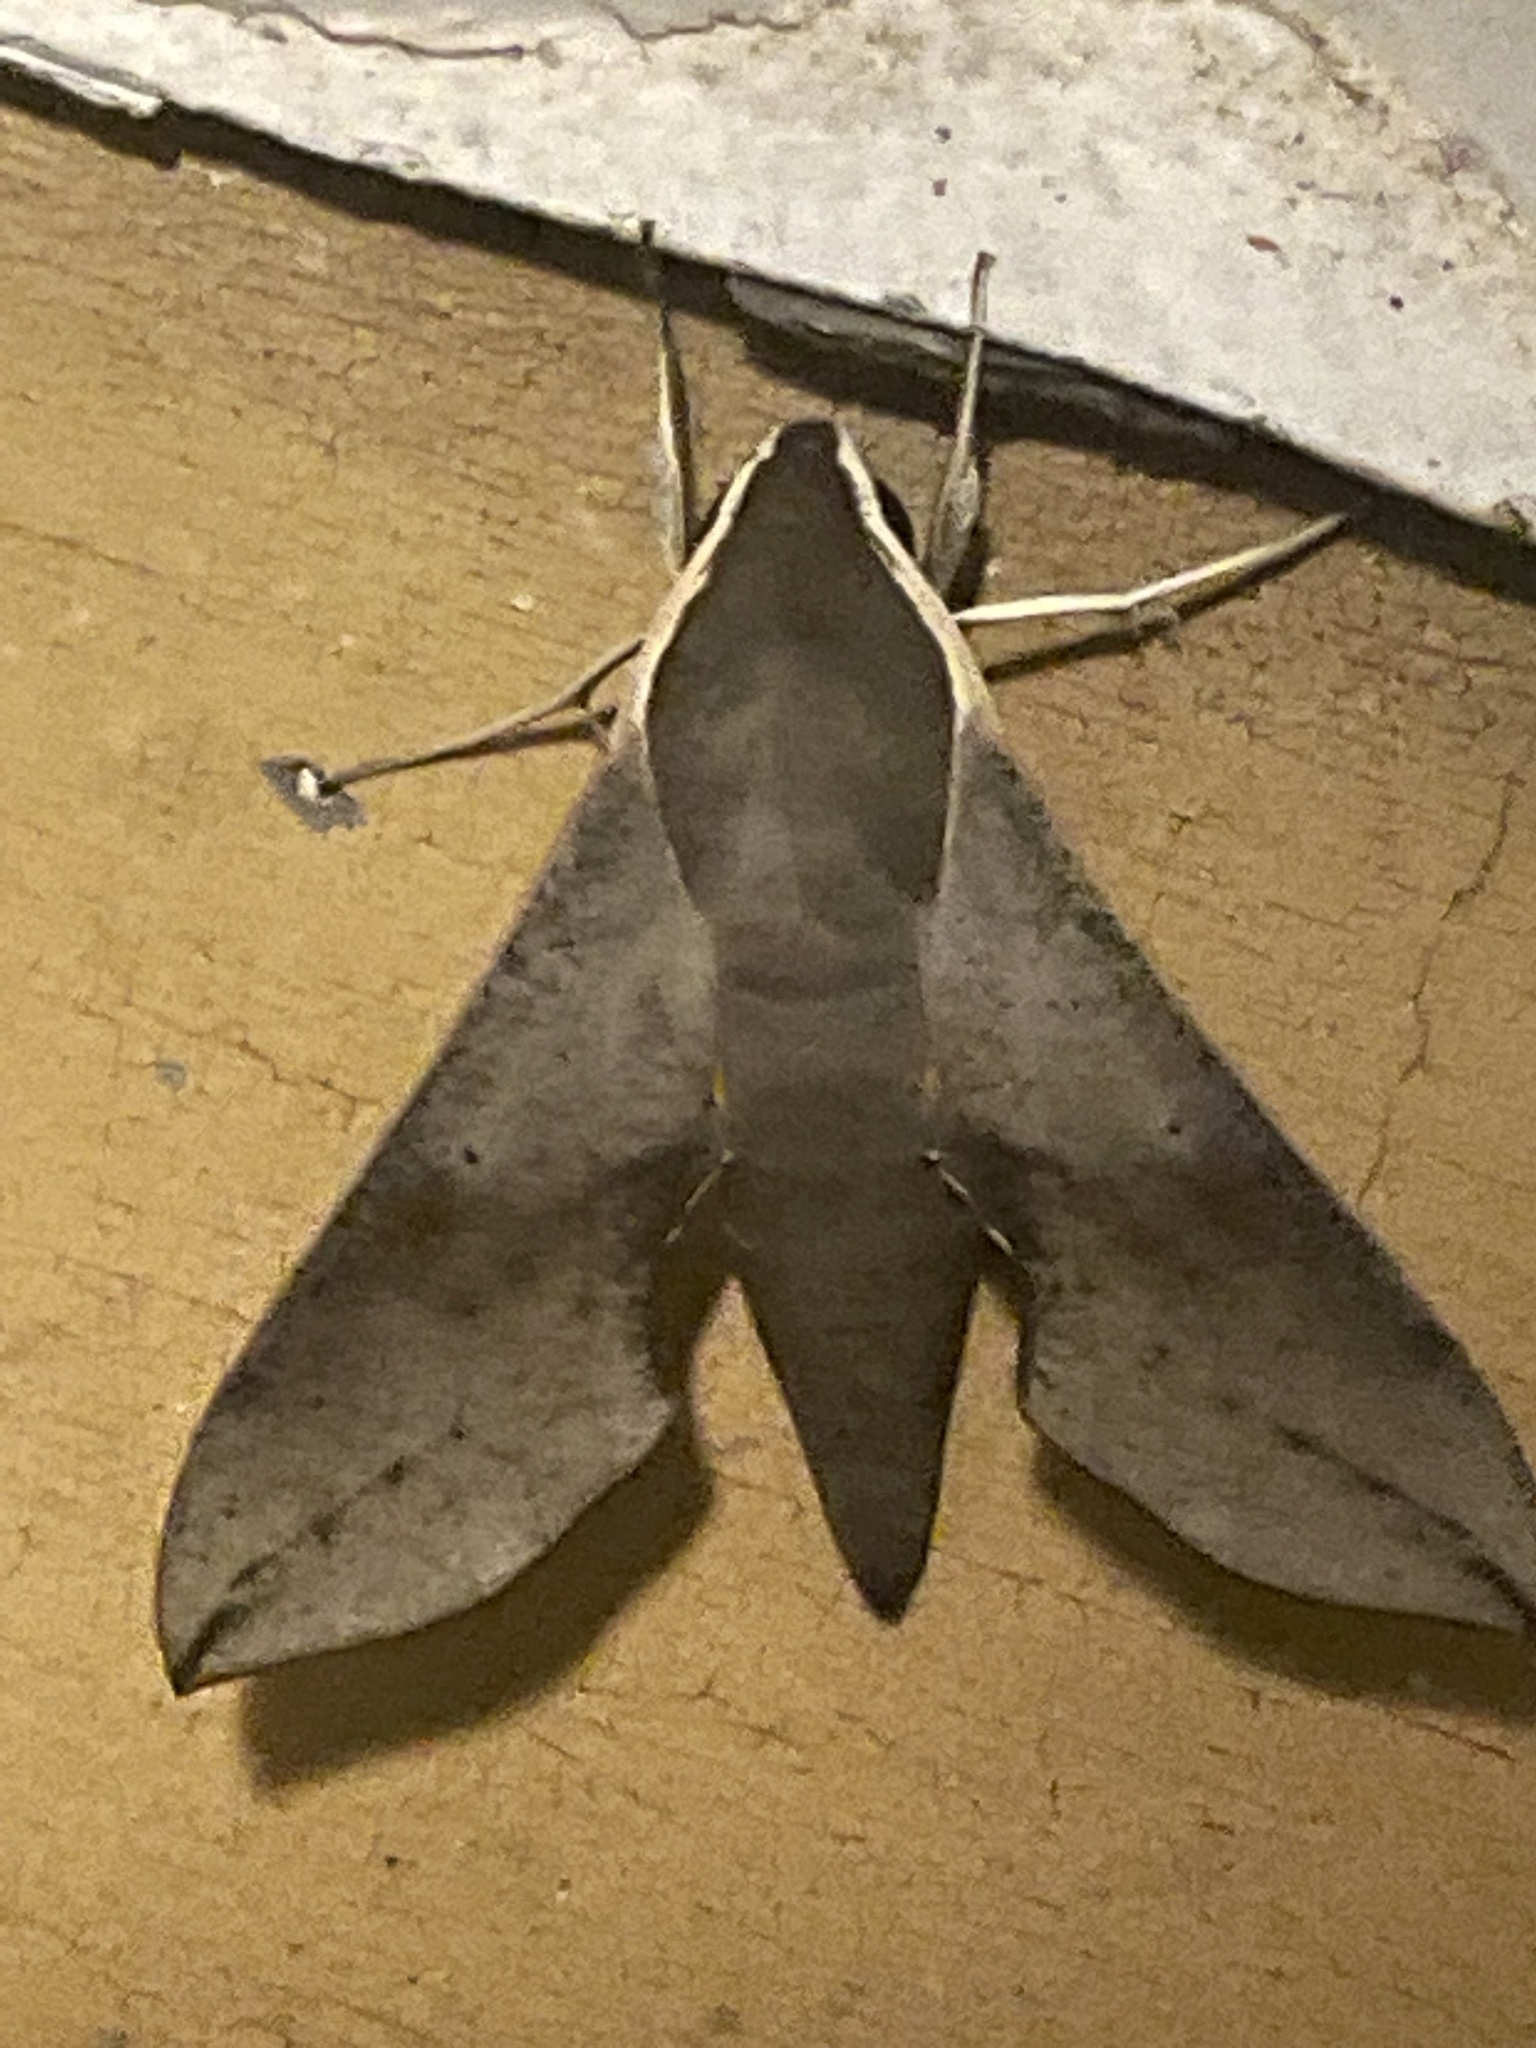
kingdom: Animalia
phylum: Arthropoda
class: Insecta
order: Lepidoptera
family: Sphingidae
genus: Hippotion
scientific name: Hippotion scrofa
